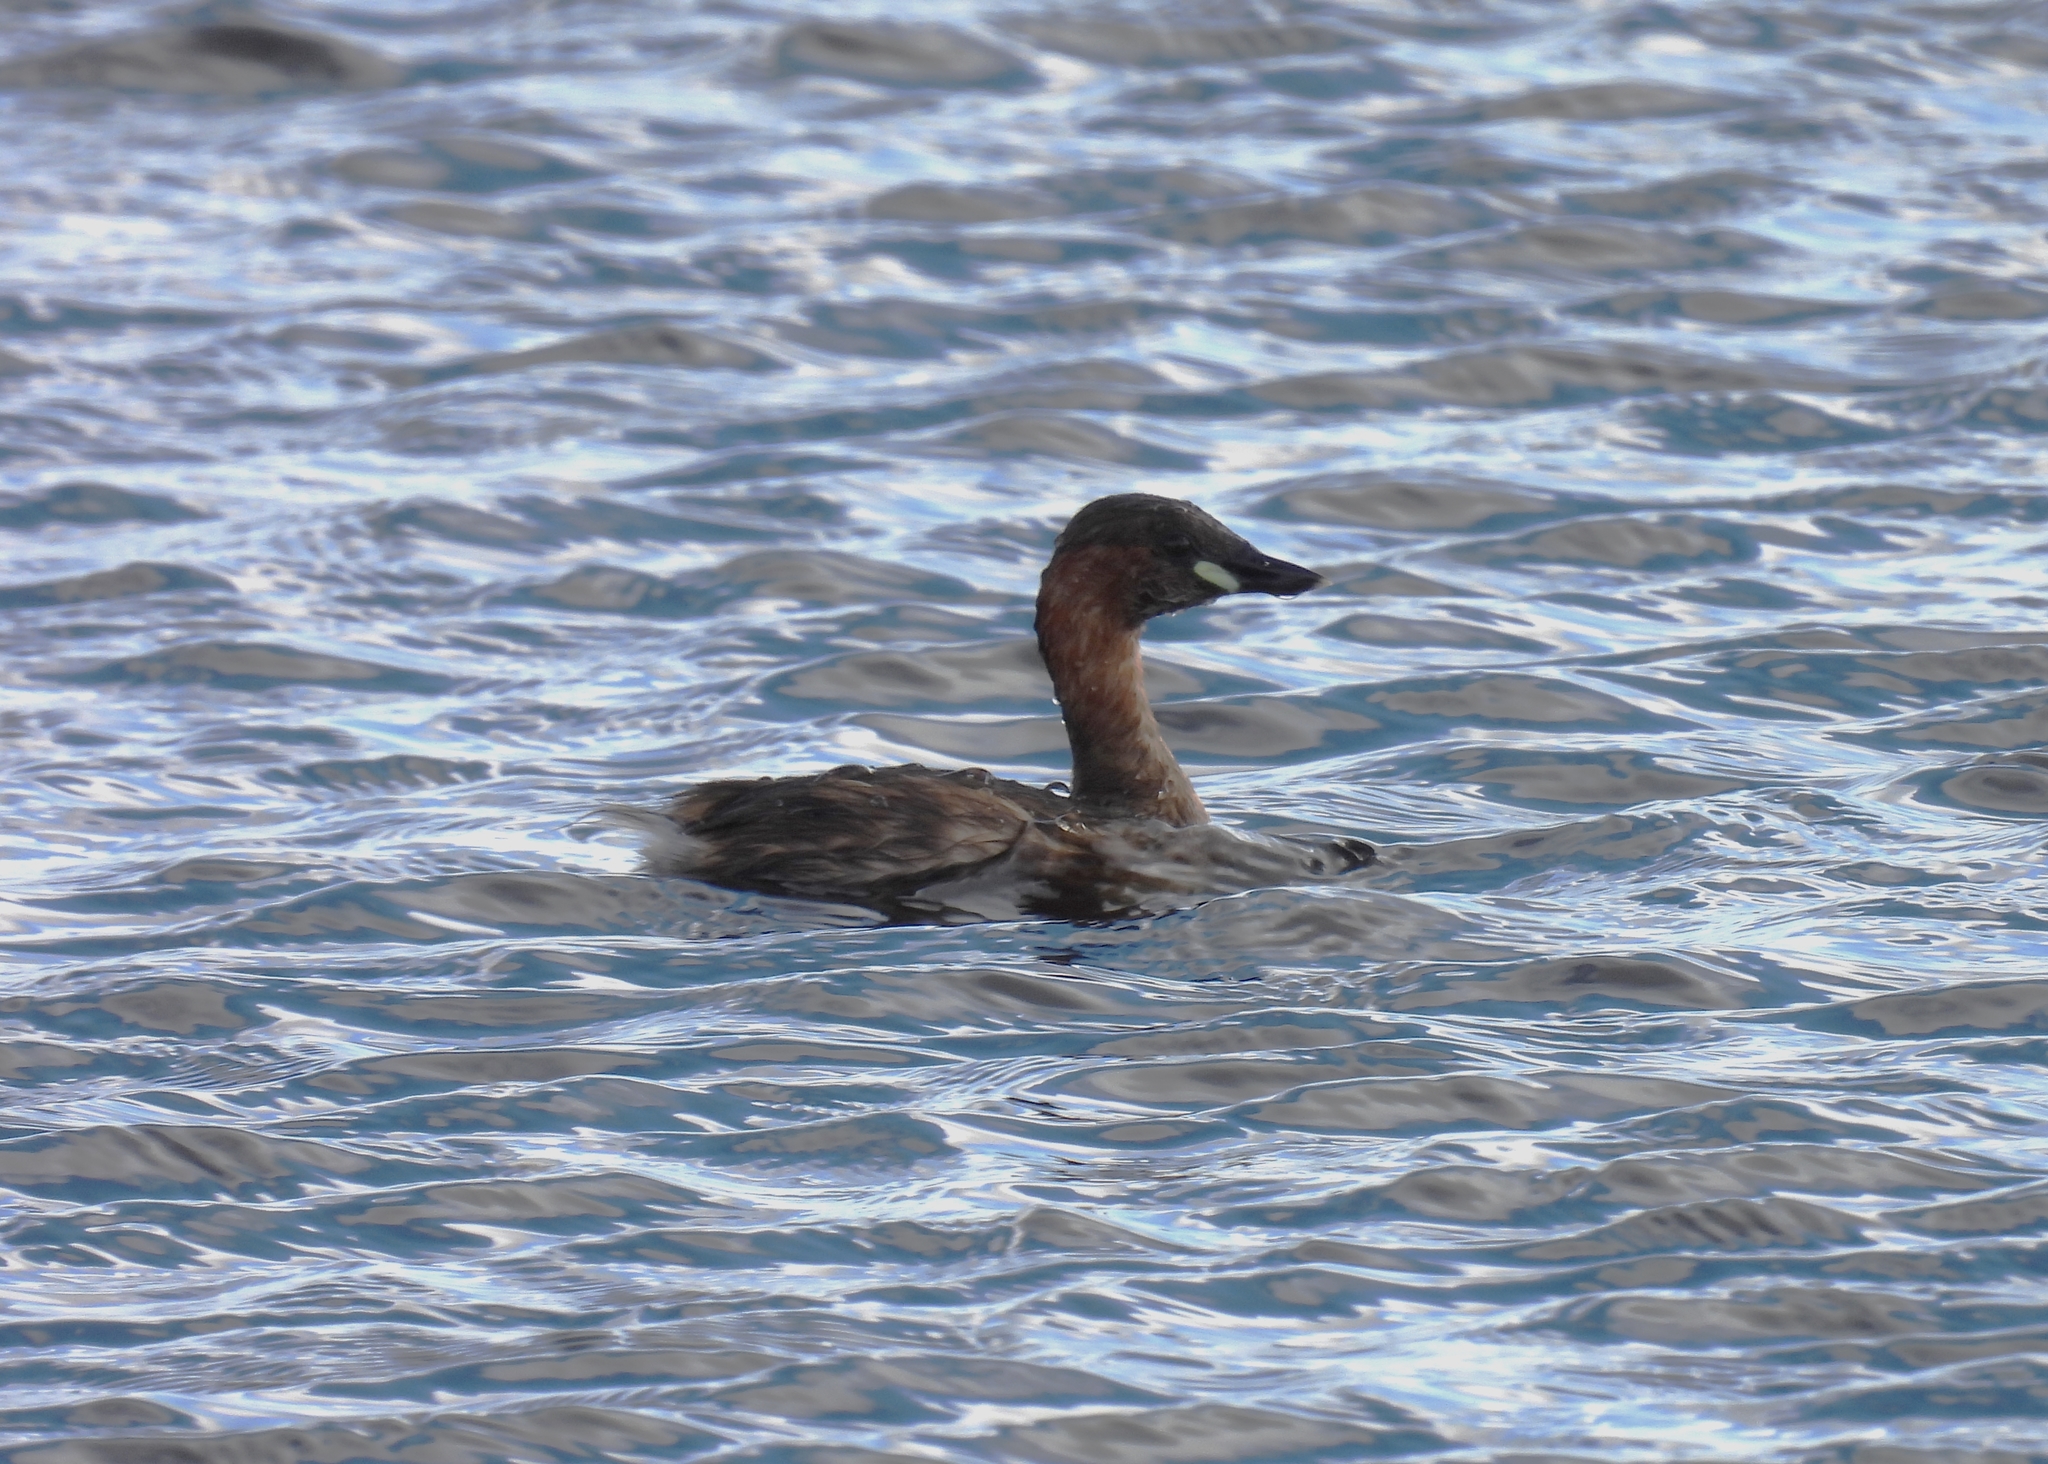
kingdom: Animalia
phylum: Chordata
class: Aves
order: Podicipediformes
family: Podicipedidae
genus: Tachybaptus
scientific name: Tachybaptus ruficollis
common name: Little grebe
